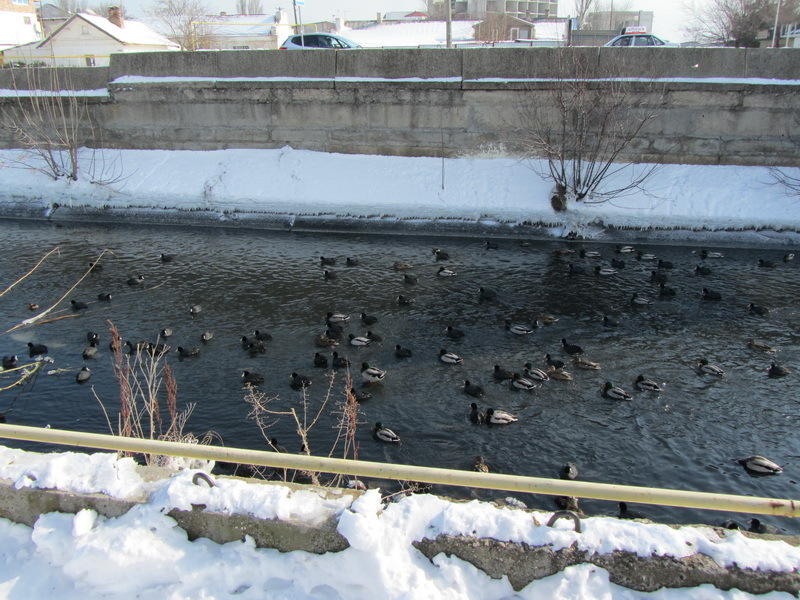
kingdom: Animalia
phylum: Chordata
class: Aves
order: Anseriformes
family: Anatidae
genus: Anas
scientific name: Anas platyrhynchos
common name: Mallard
